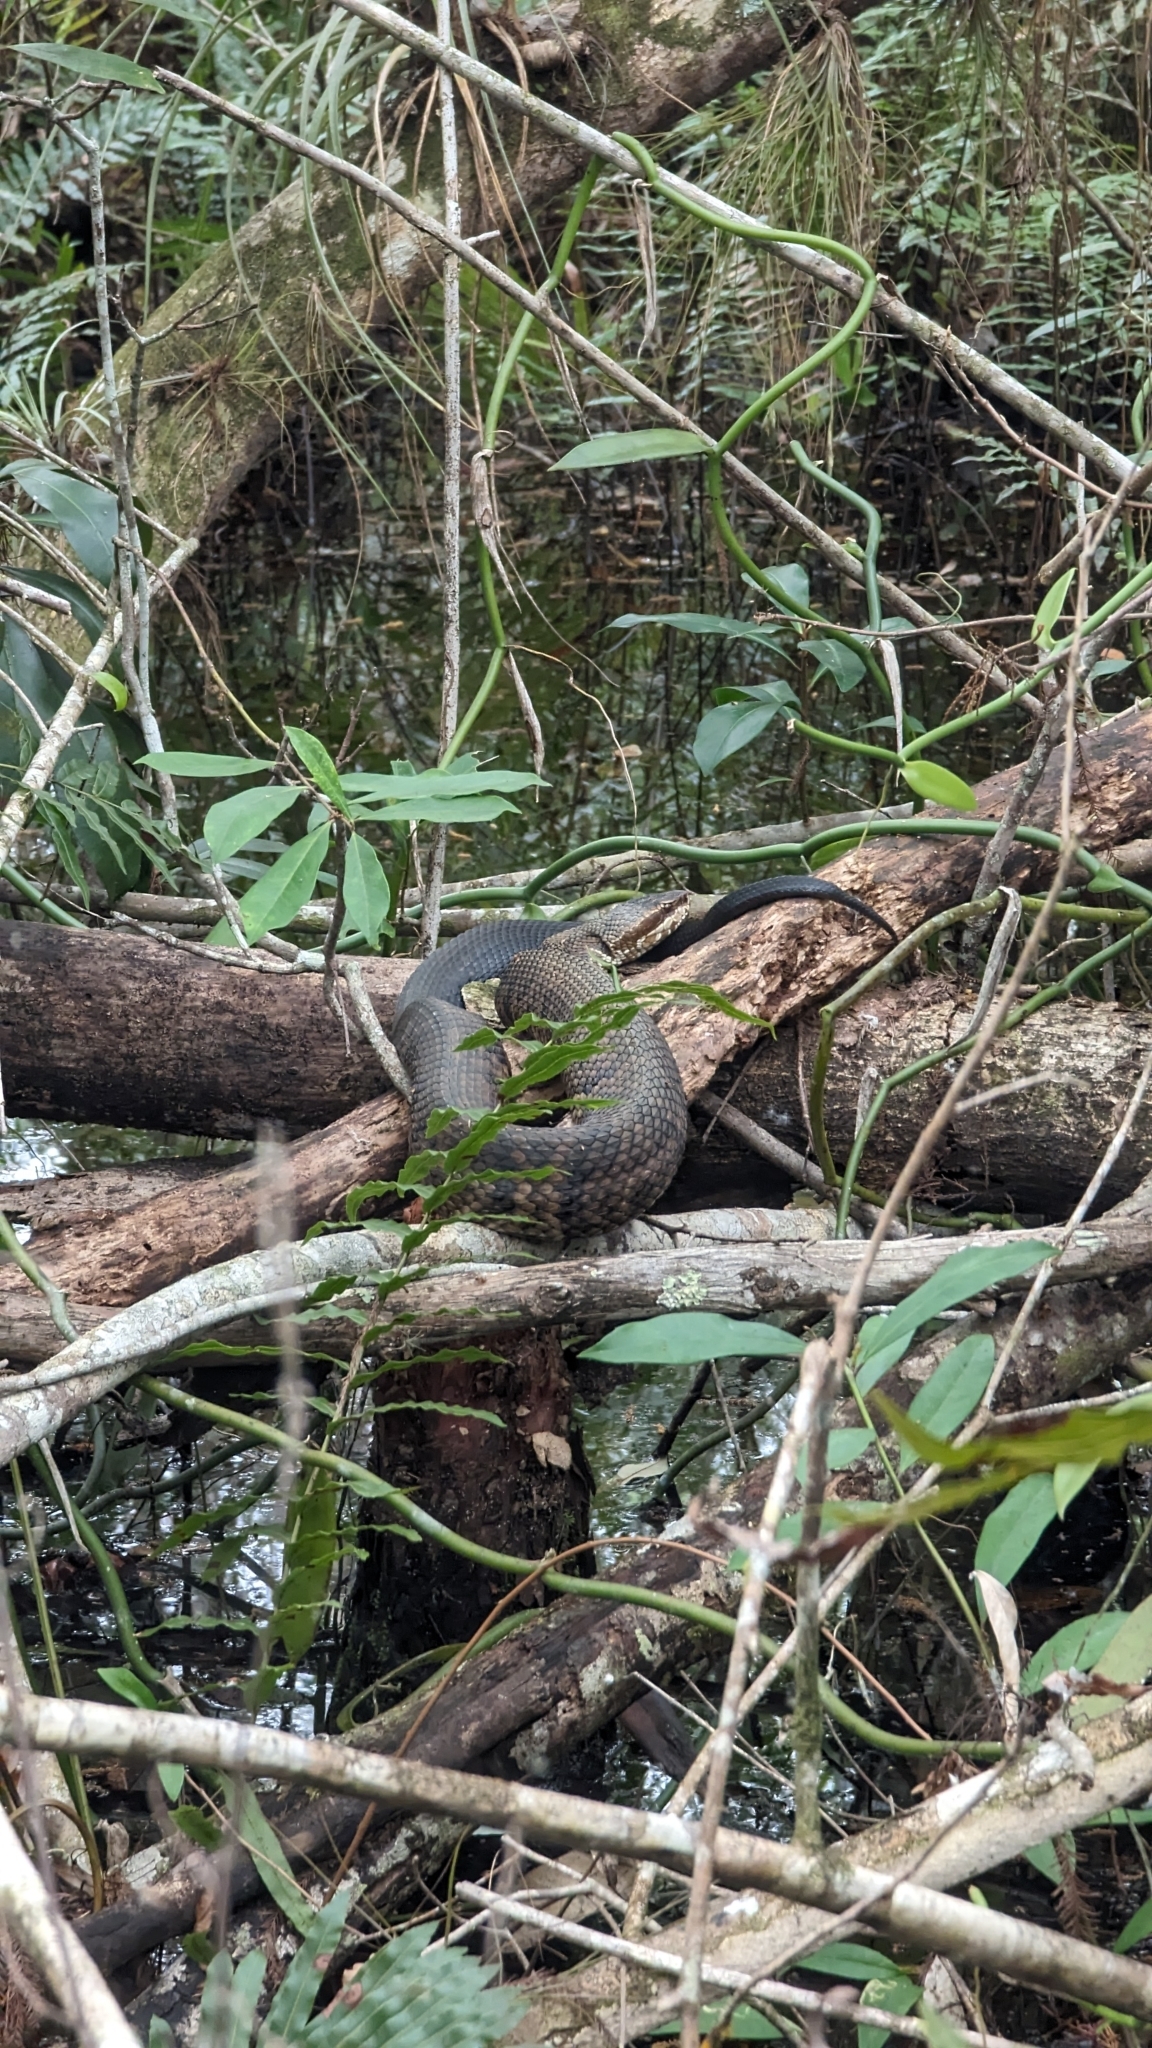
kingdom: Animalia
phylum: Chordata
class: Squamata
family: Viperidae
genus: Agkistrodon
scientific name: Agkistrodon conanti
